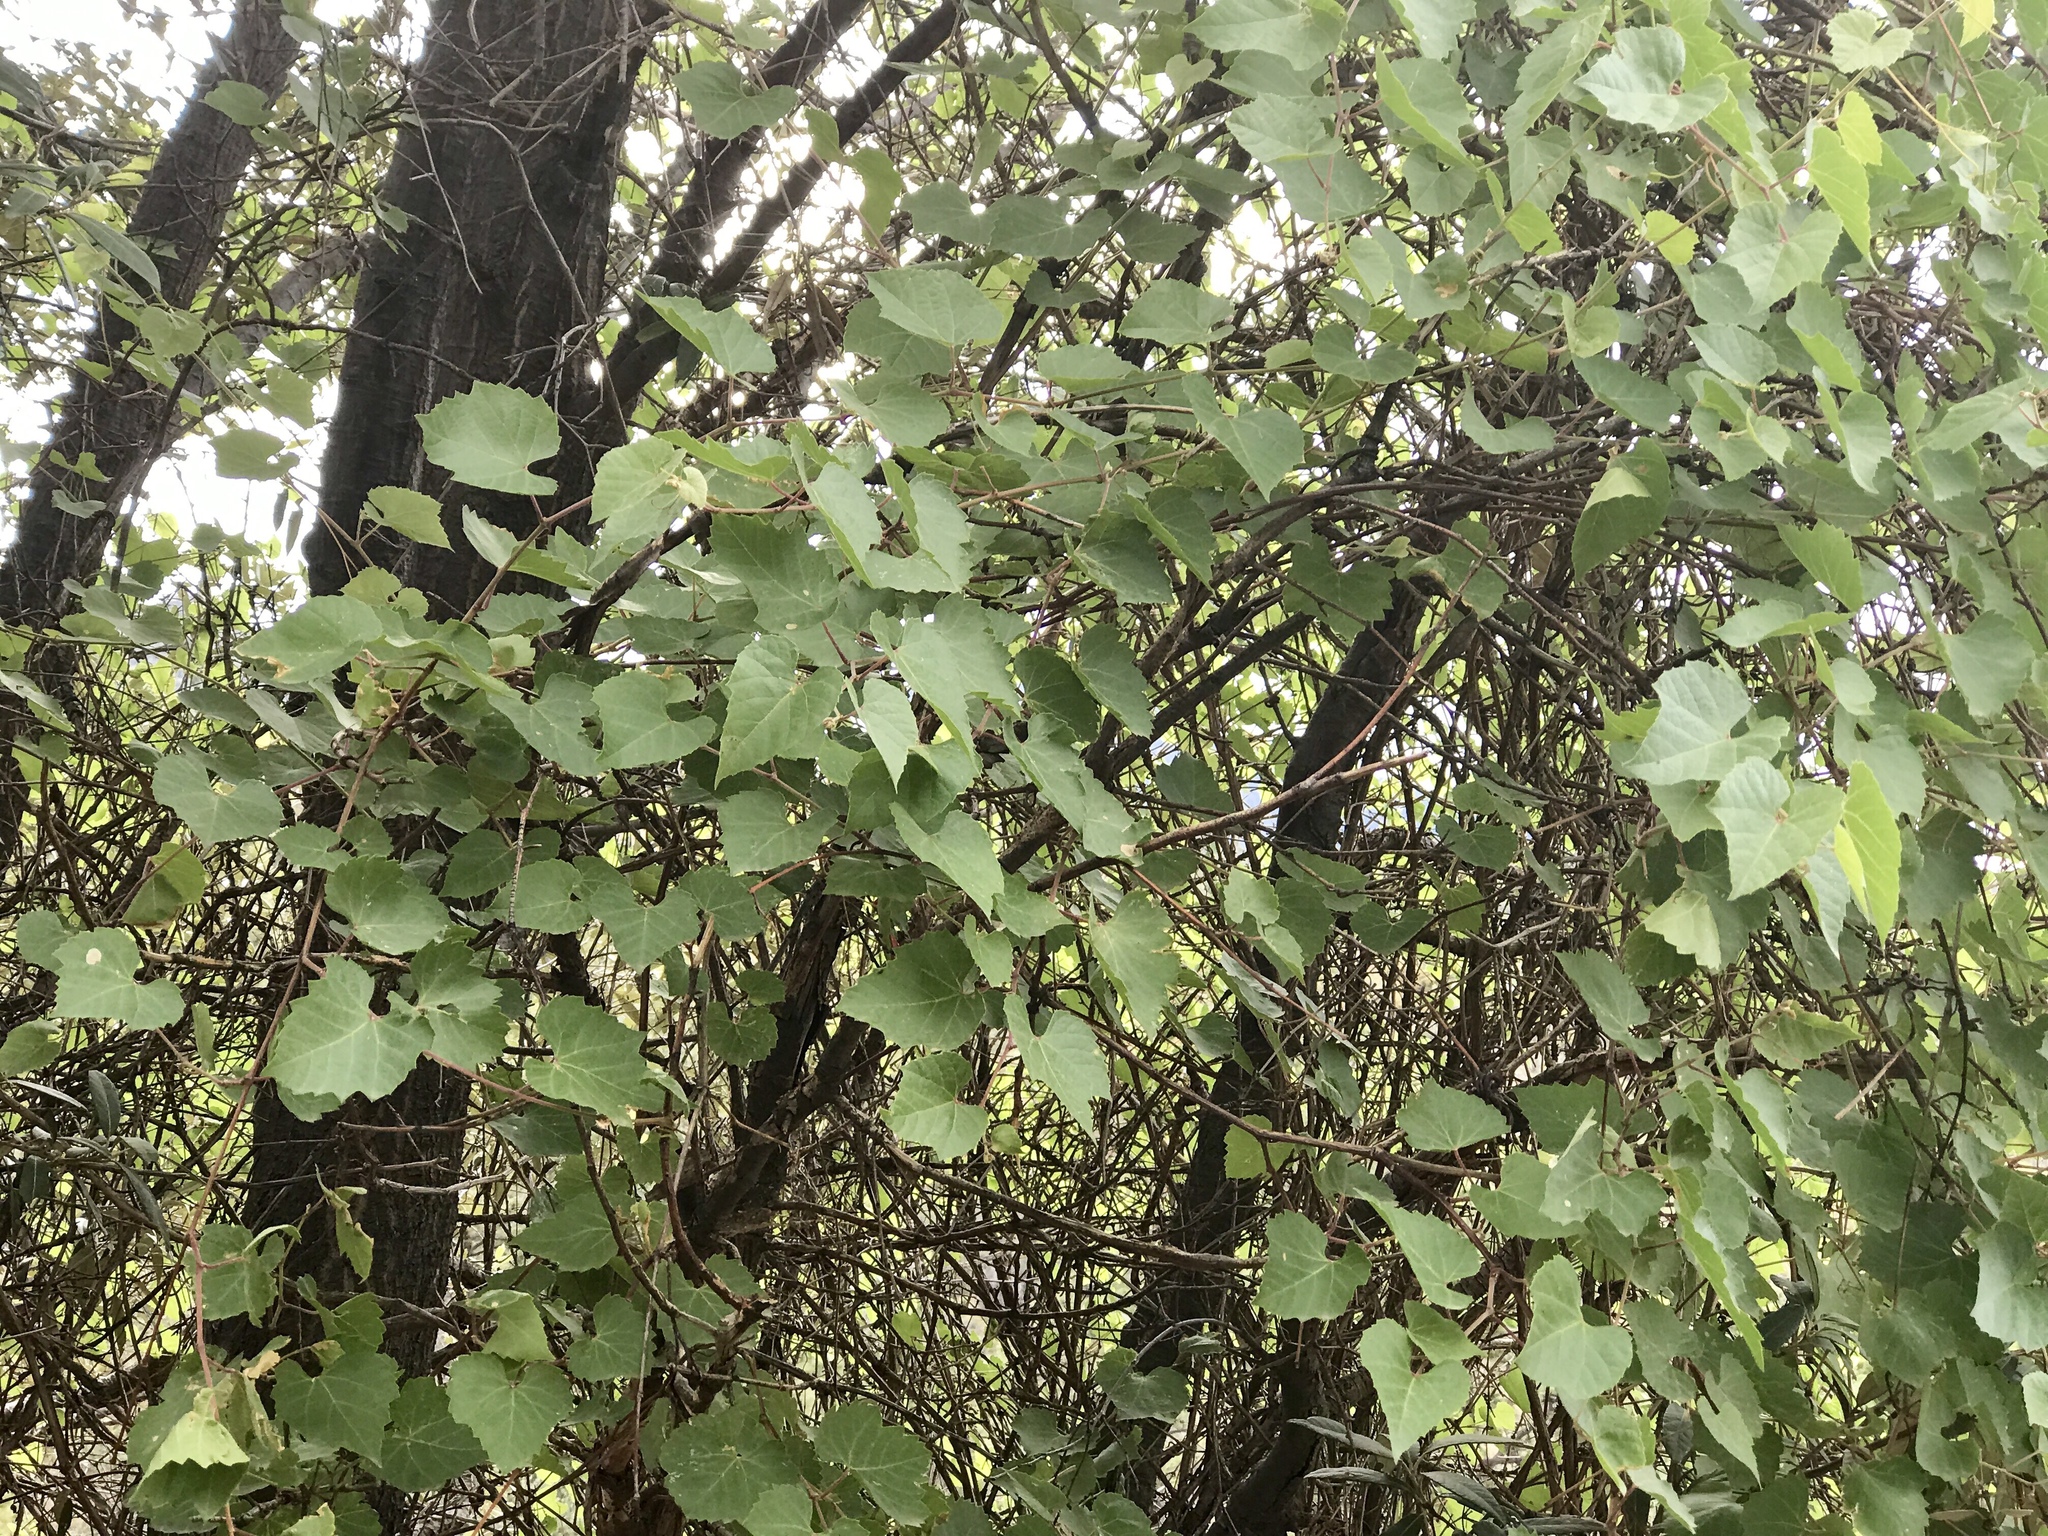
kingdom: Plantae
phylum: Tracheophyta
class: Magnoliopsida
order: Vitales
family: Vitaceae
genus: Vitis
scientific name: Vitis arizonica
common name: Canyon grape
